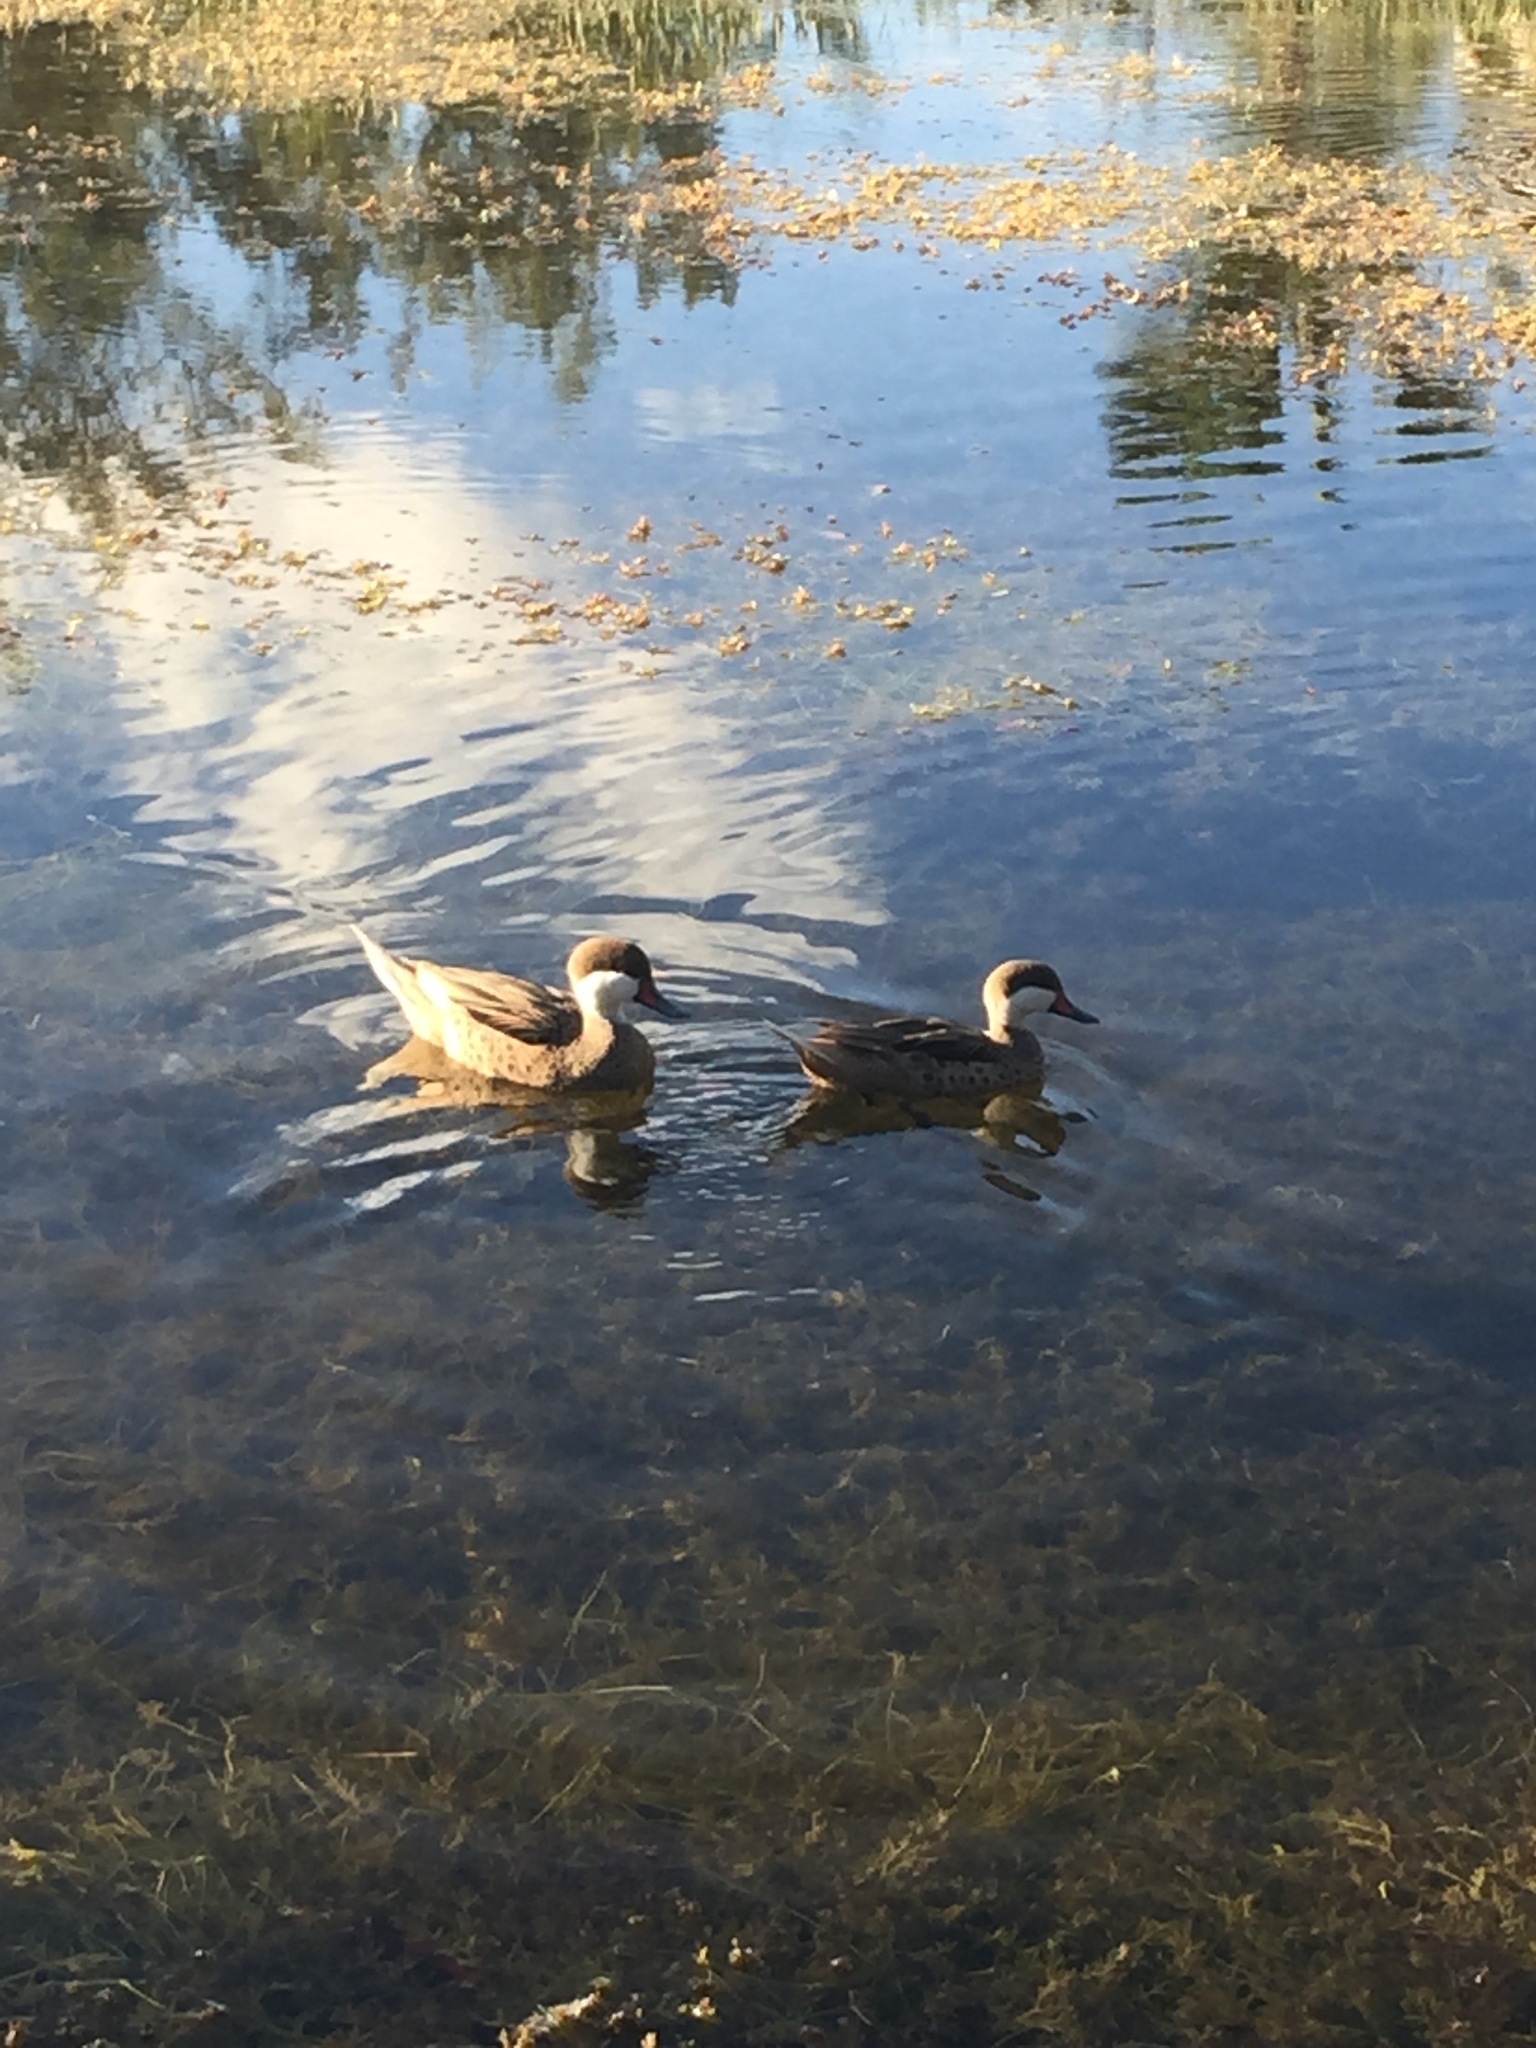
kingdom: Animalia
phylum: Chordata
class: Aves
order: Anseriformes
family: Anatidae
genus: Anas
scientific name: Anas bahamensis
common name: White-cheeked pintail
